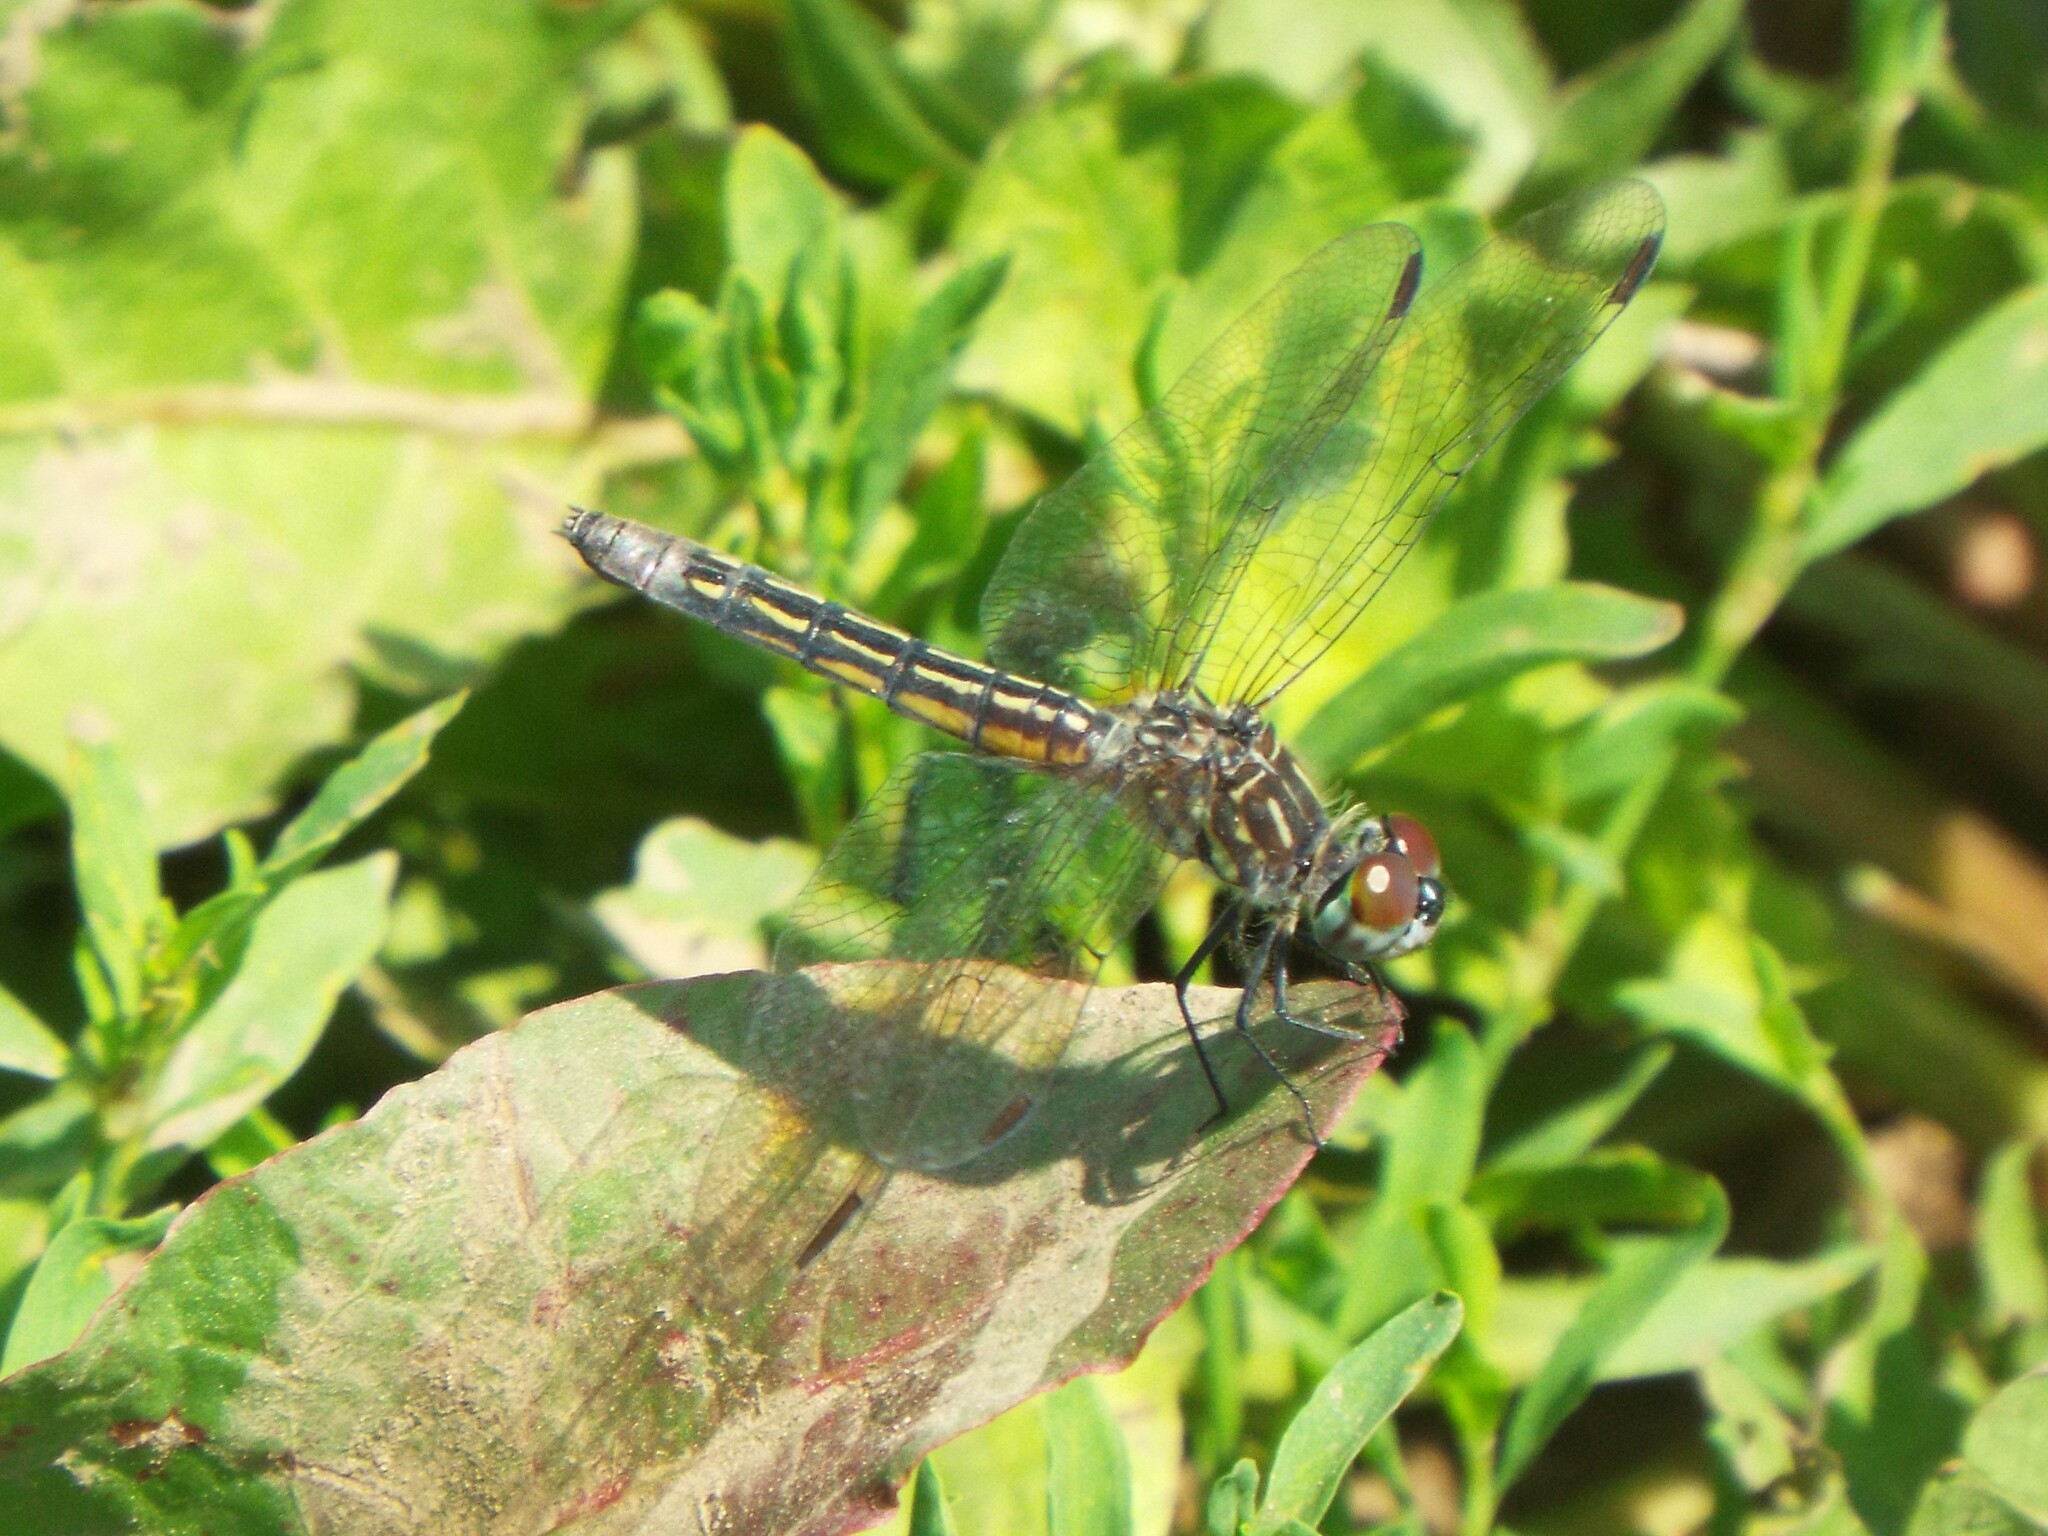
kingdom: Animalia
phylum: Arthropoda
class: Insecta
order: Odonata
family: Libellulidae
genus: Pachydiplax
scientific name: Pachydiplax longipennis
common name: Blue dasher
